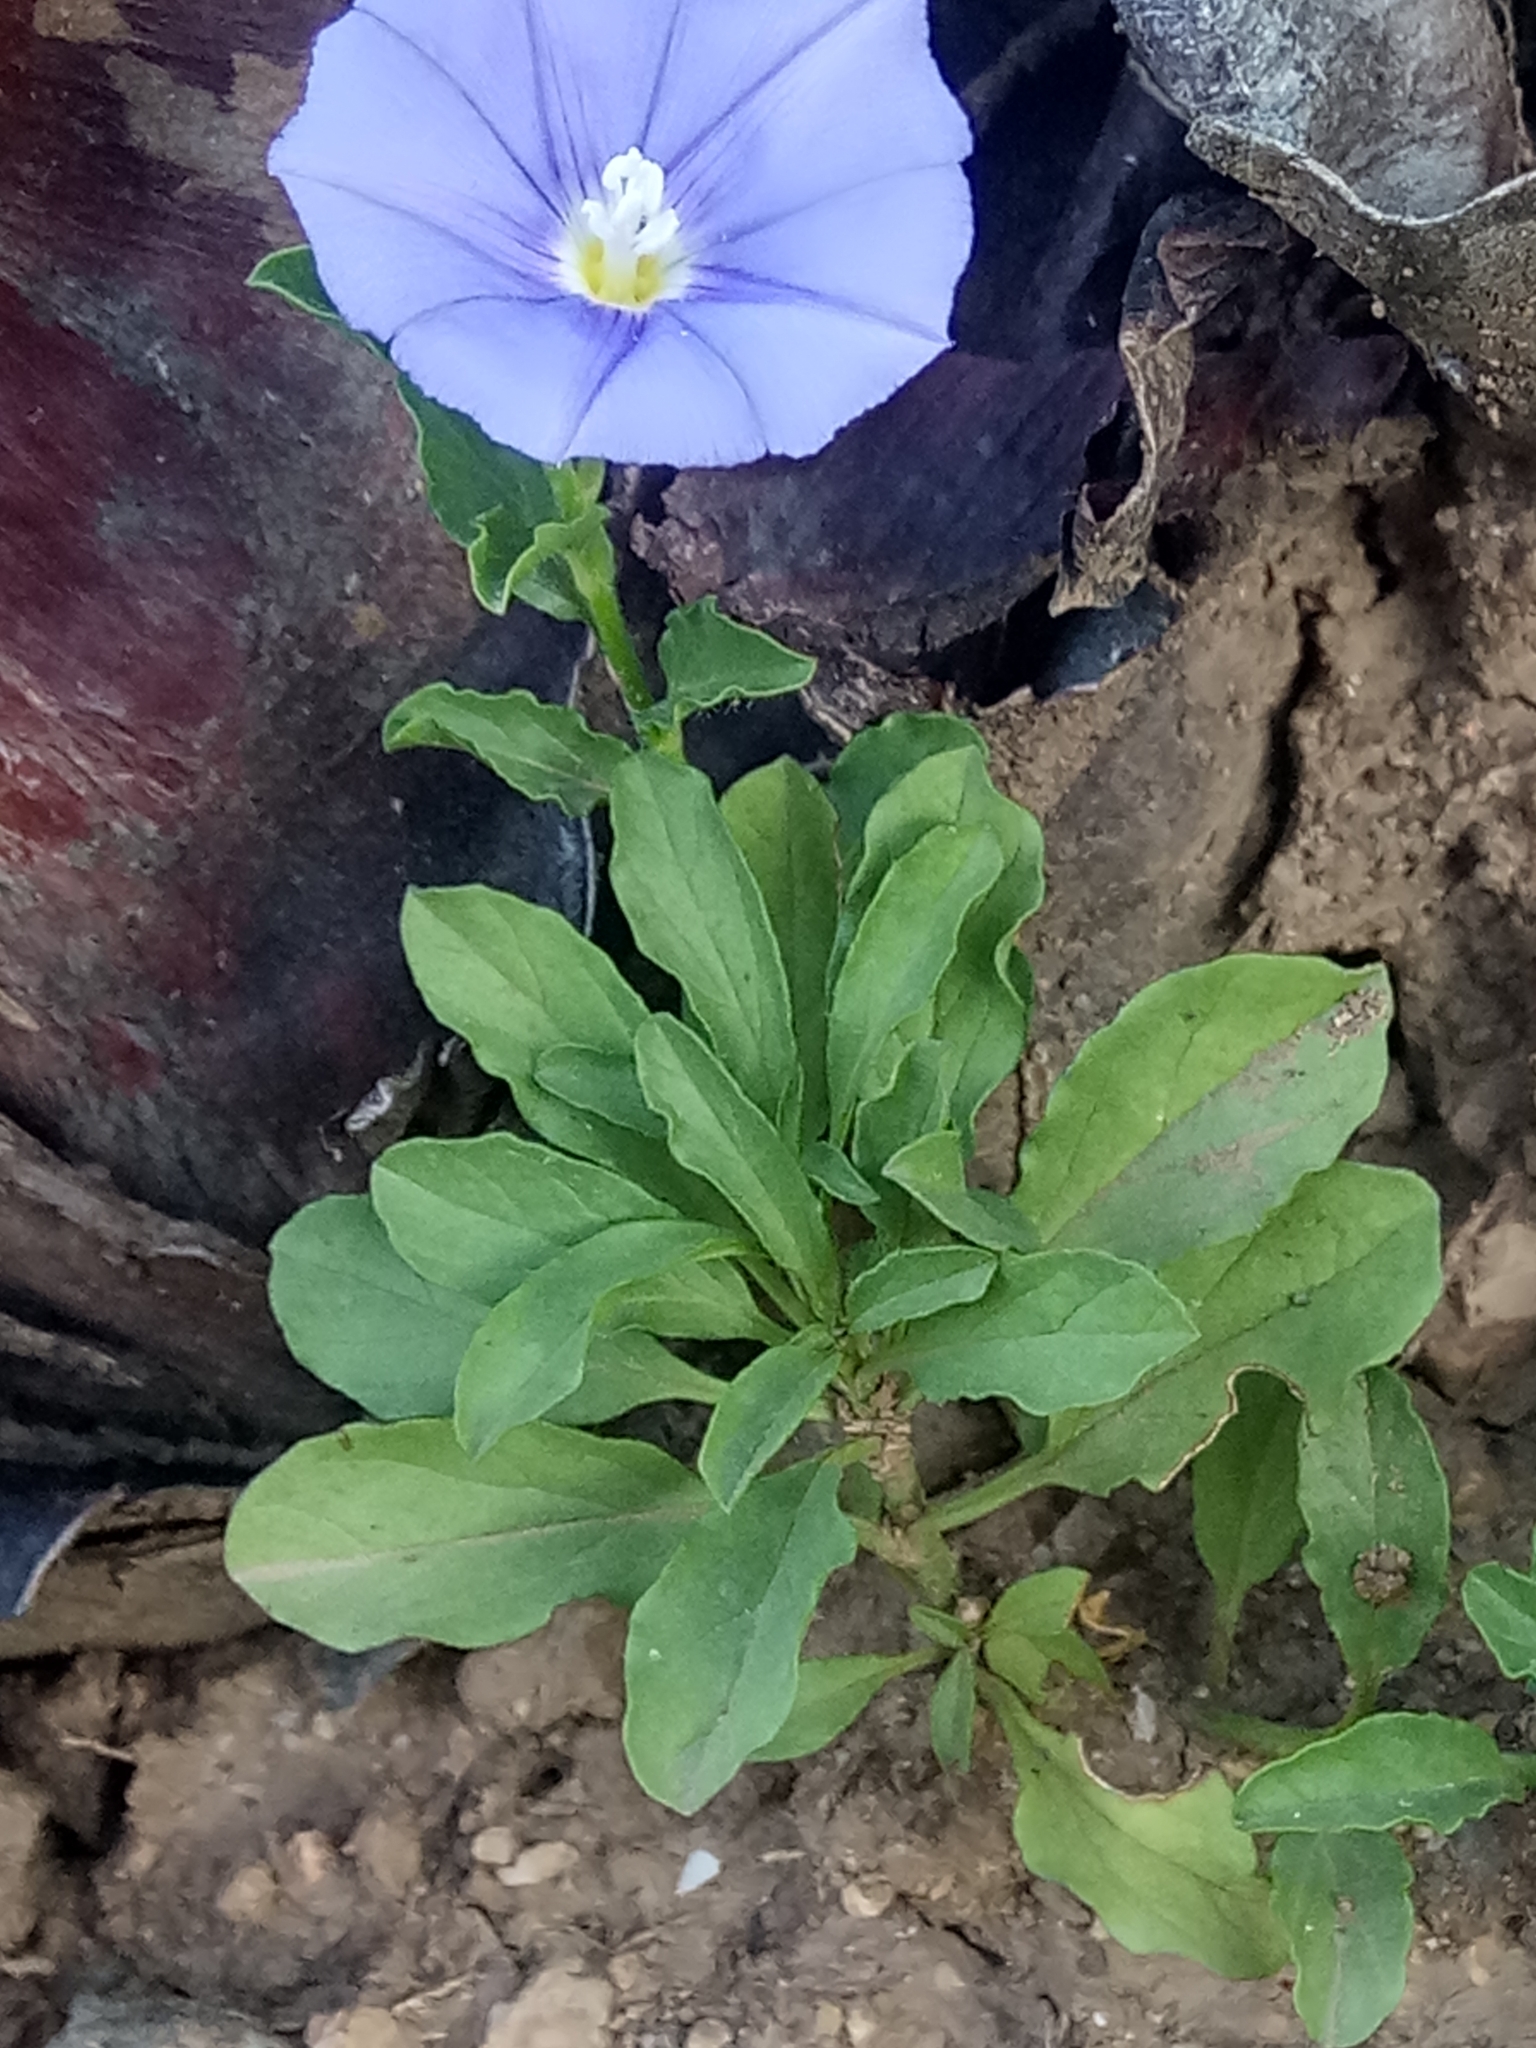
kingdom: Plantae
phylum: Tracheophyta
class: Magnoliopsida
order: Solanales
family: Convolvulaceae
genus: Convolvulus
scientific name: Convolvulus sabatius
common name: Ground blue-convolvulus
